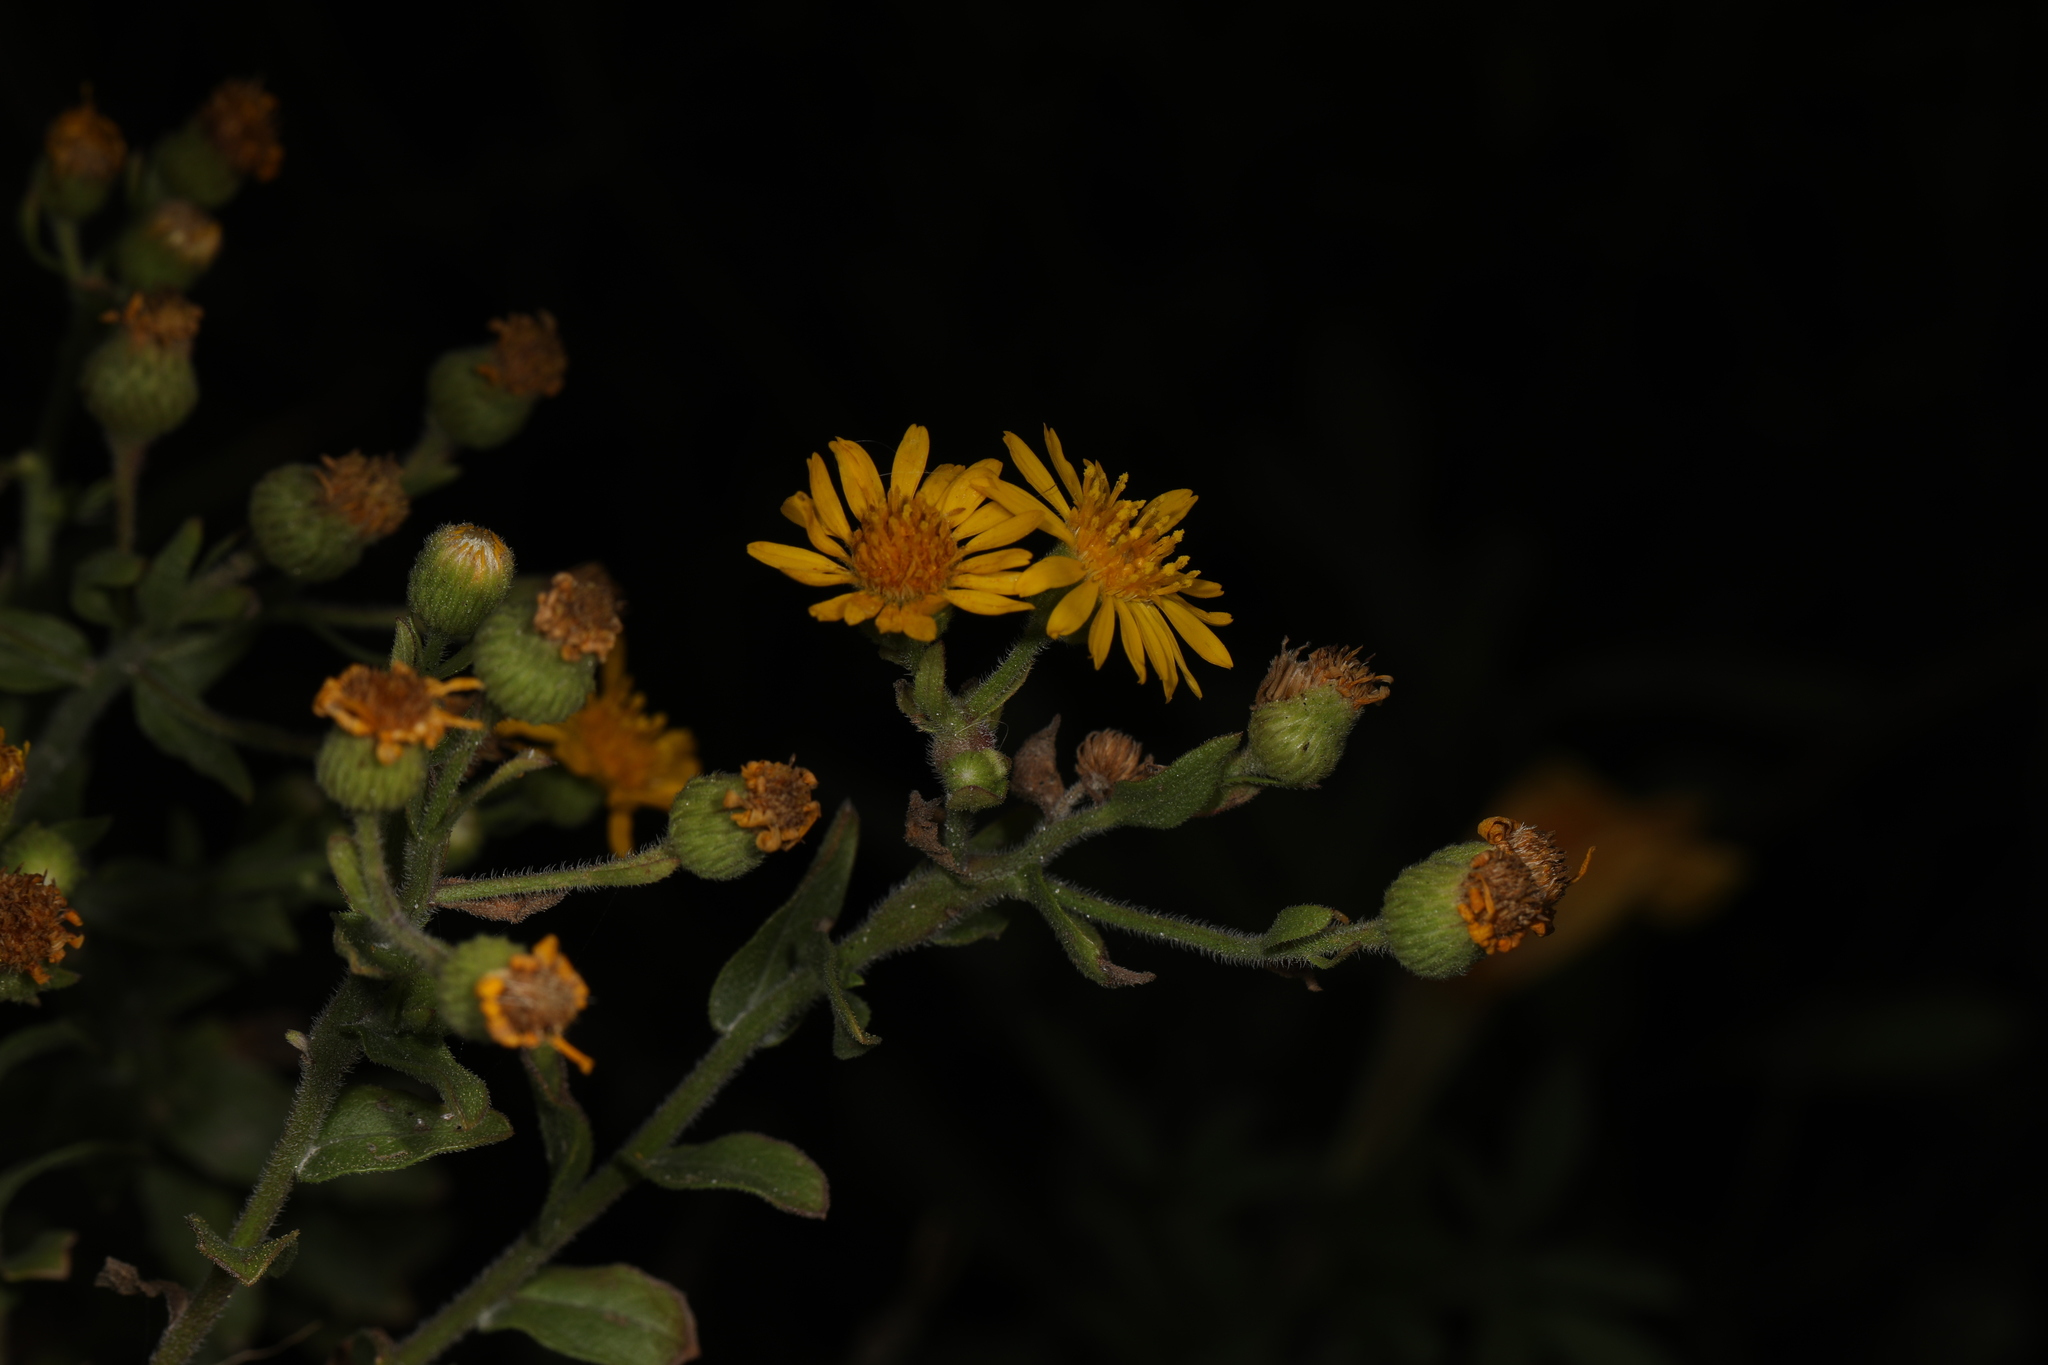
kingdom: Plantae
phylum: Tracheophyta
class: Magnoliopsida
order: Asterales
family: Asteraceae
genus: Heterotheca
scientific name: Heterotheca subaxillaris
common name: Camphorweed
